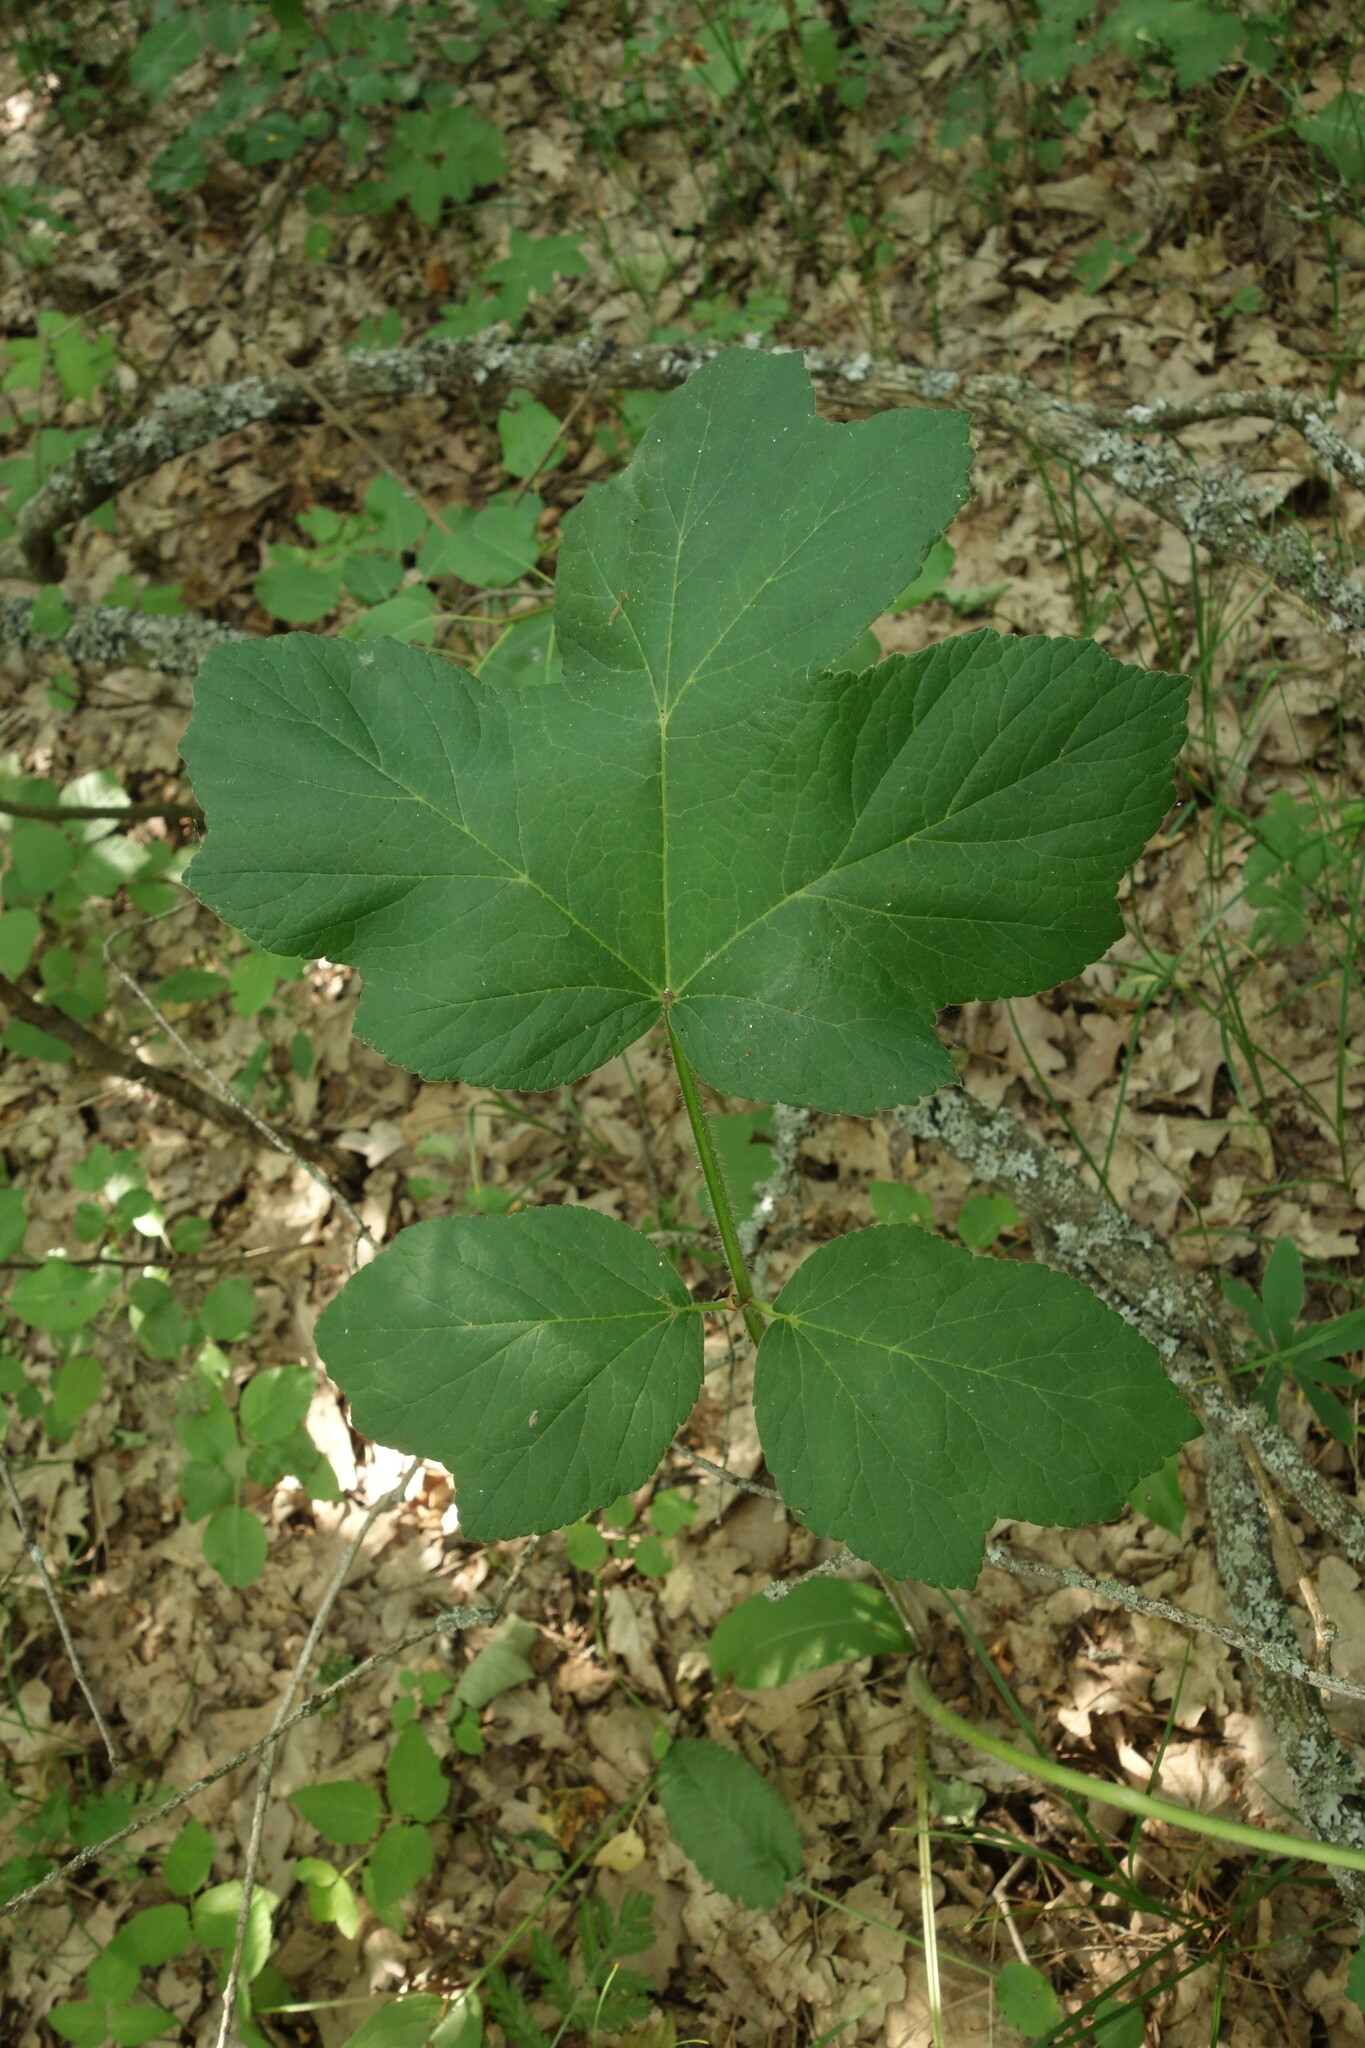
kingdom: Plantae
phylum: Tracheophyta
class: Magnoliopsida
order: Apiales
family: Apiaceae
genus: Heracleum
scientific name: Heracleum sphondylium
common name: Hogweed
